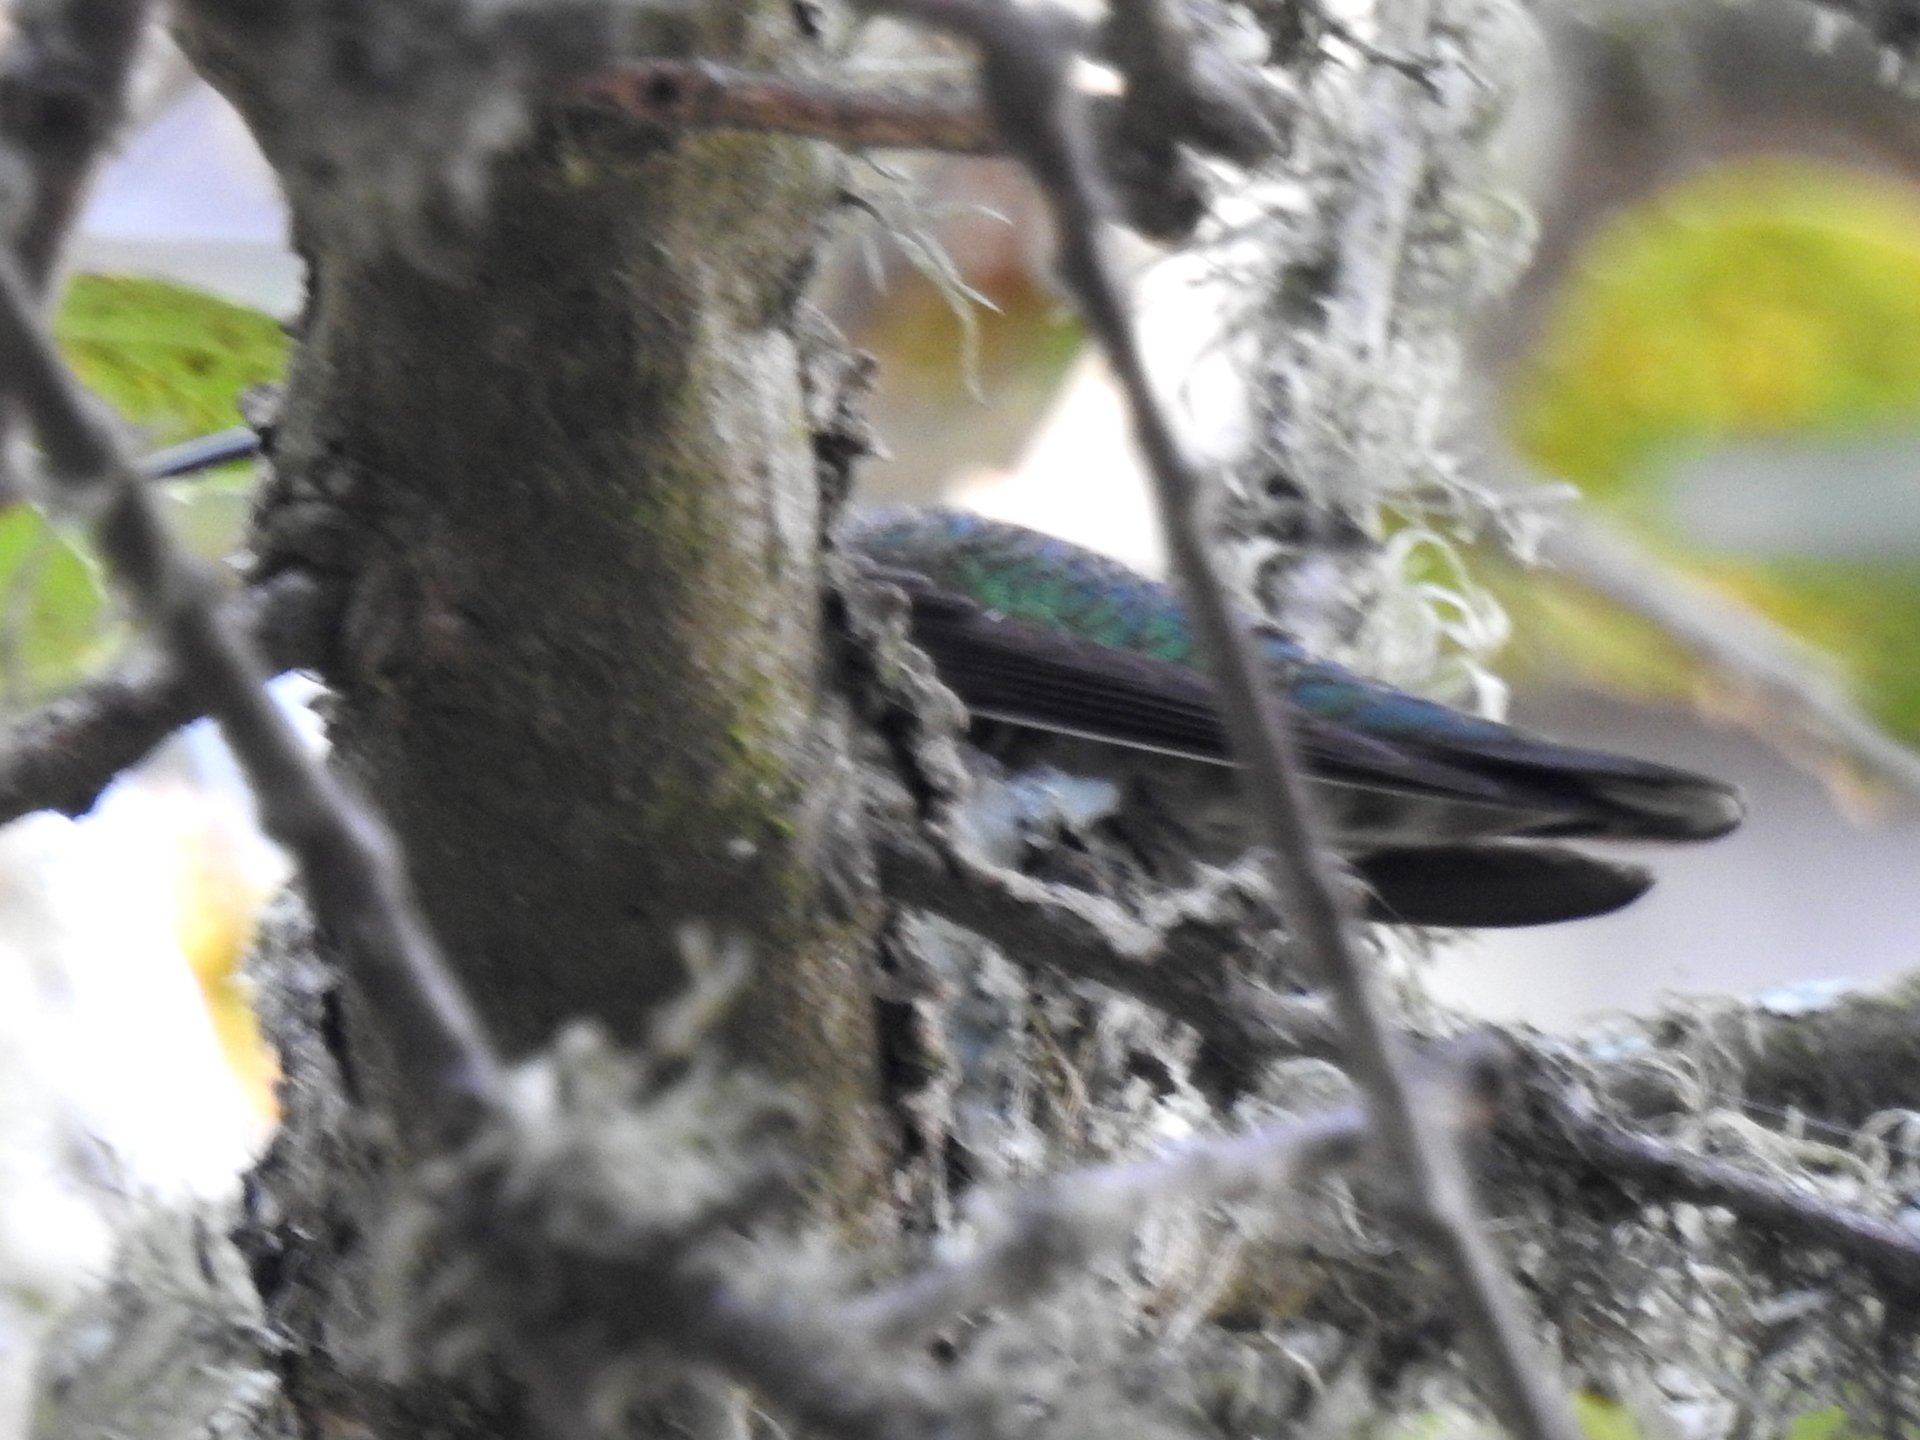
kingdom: Animalia
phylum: Chordata
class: Aves
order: Apodiformes
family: Trochilidae
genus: Calypte
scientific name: Calypte anna
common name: Anna's hummingbird
